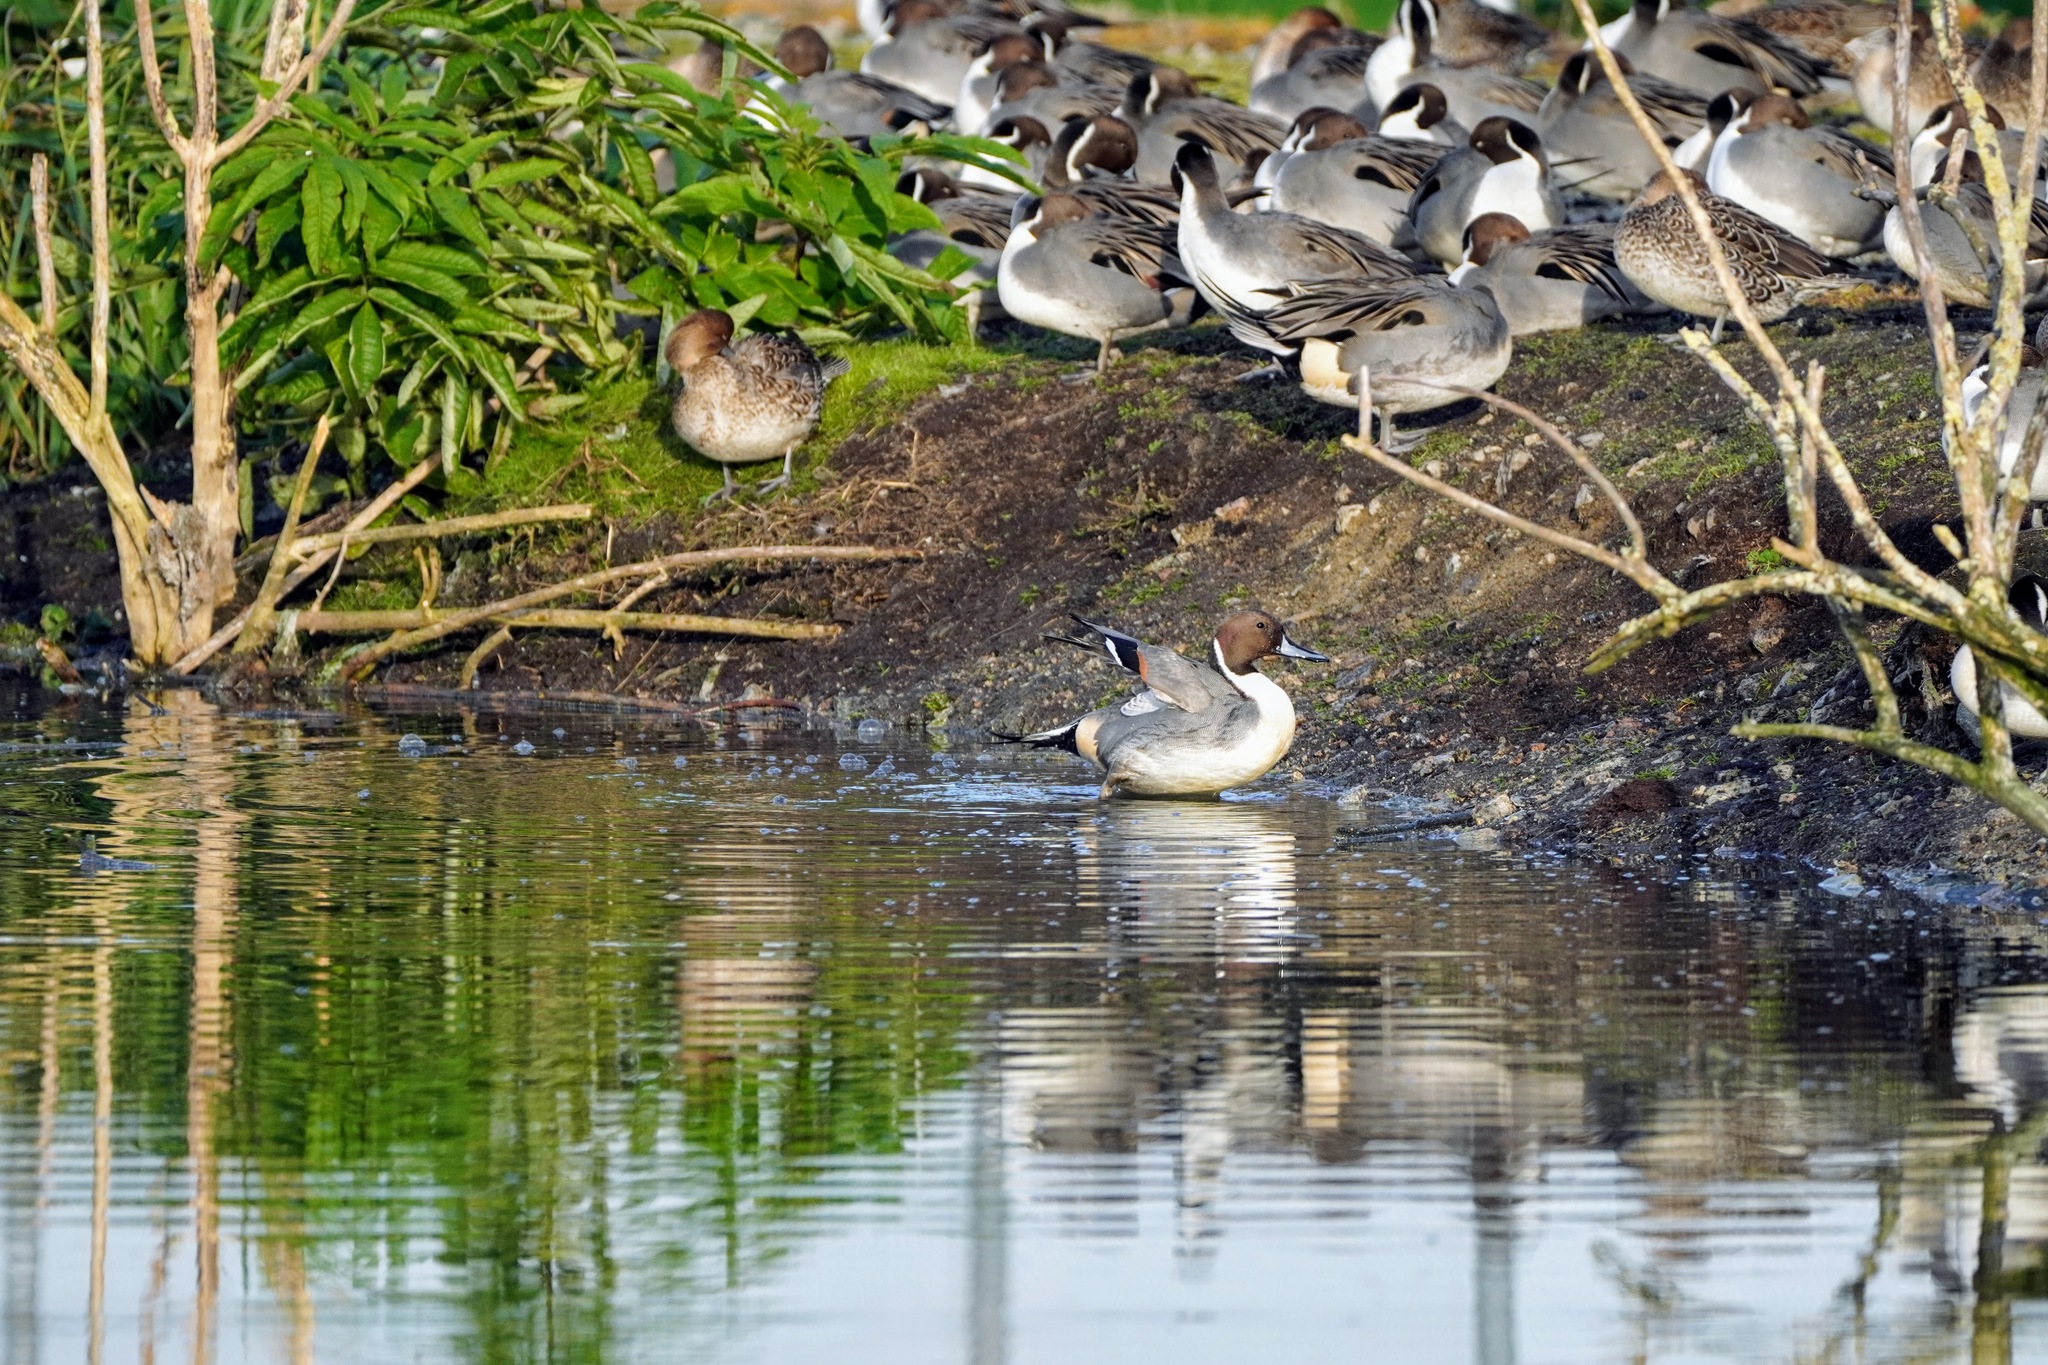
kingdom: Animalia
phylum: Chordata
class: Aves
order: Anseriformes
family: Anatidae
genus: Anas
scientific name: Anas acuta
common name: Northern pintail
